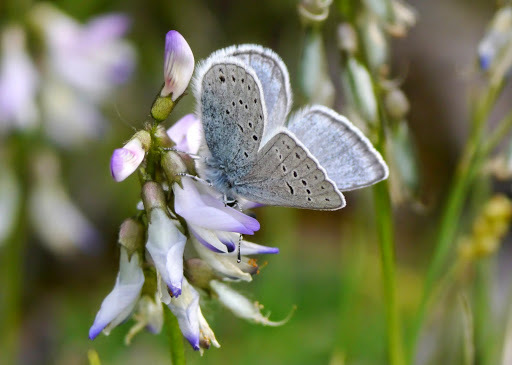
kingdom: Animalia
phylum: Arthropoda
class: Insecta
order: Lepidoptera
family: Lycaenidae
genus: Icaricia
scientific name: Icaricia saepiolus
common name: Greenish blue
